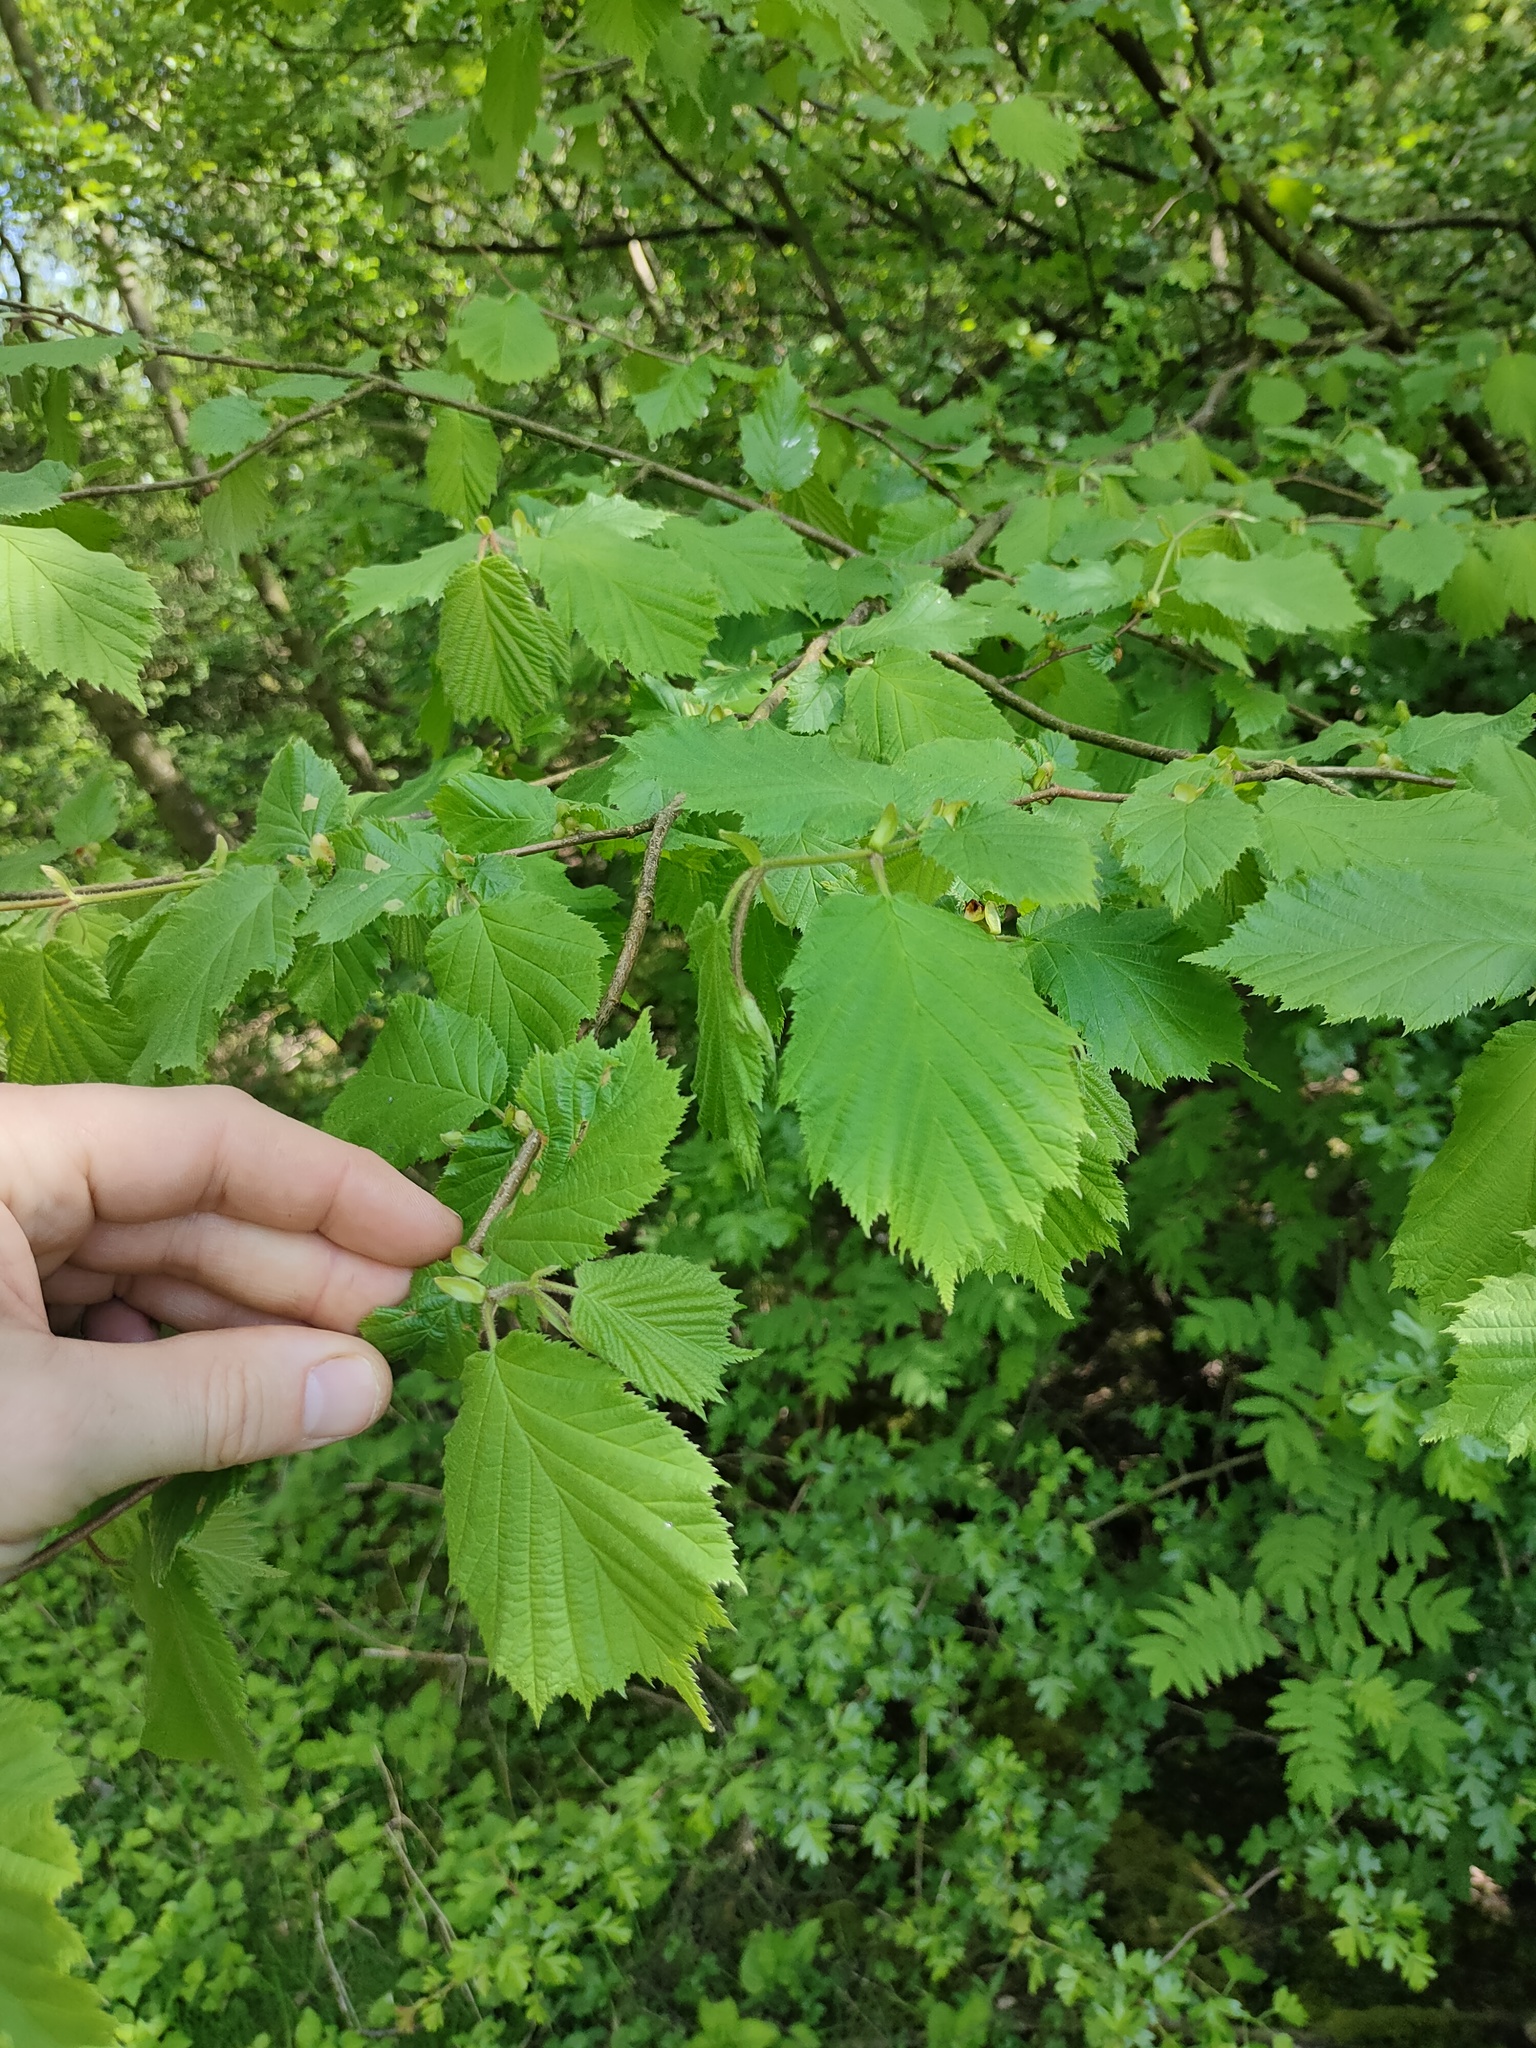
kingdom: Plantae
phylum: Tracheophyta
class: Magnoliopsida
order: Fagales
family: Betulaceae
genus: Corylus
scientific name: Corylus avellana
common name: European hazel
